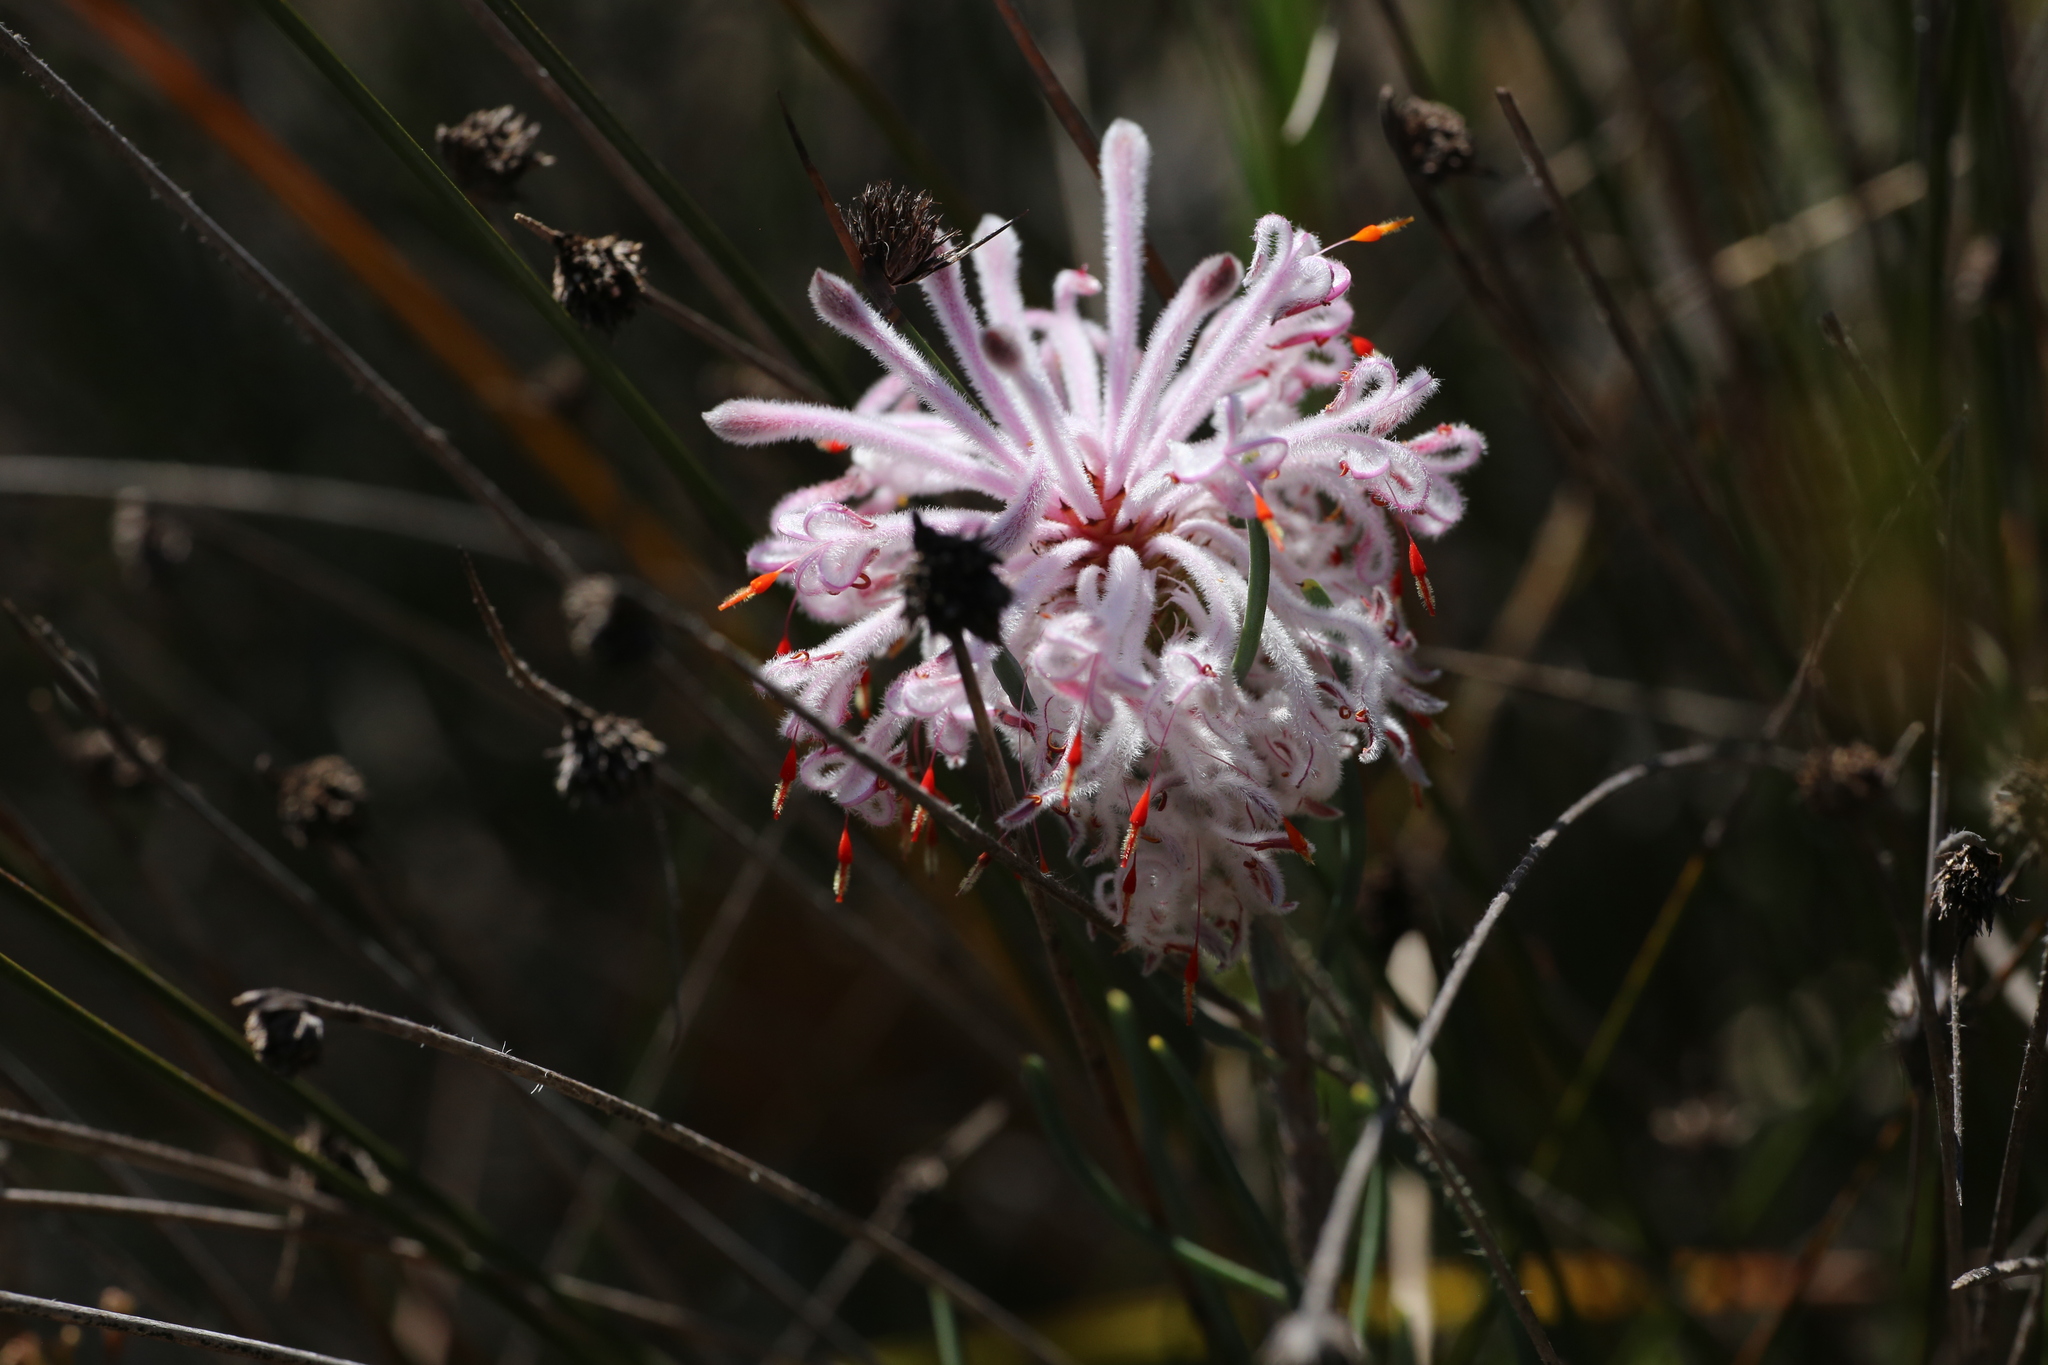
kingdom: Plantae
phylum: Tracheophyta
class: Magnoliopsida
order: Proteales
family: Proteaceae
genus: Petrophile
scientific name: Petrophile linearis
